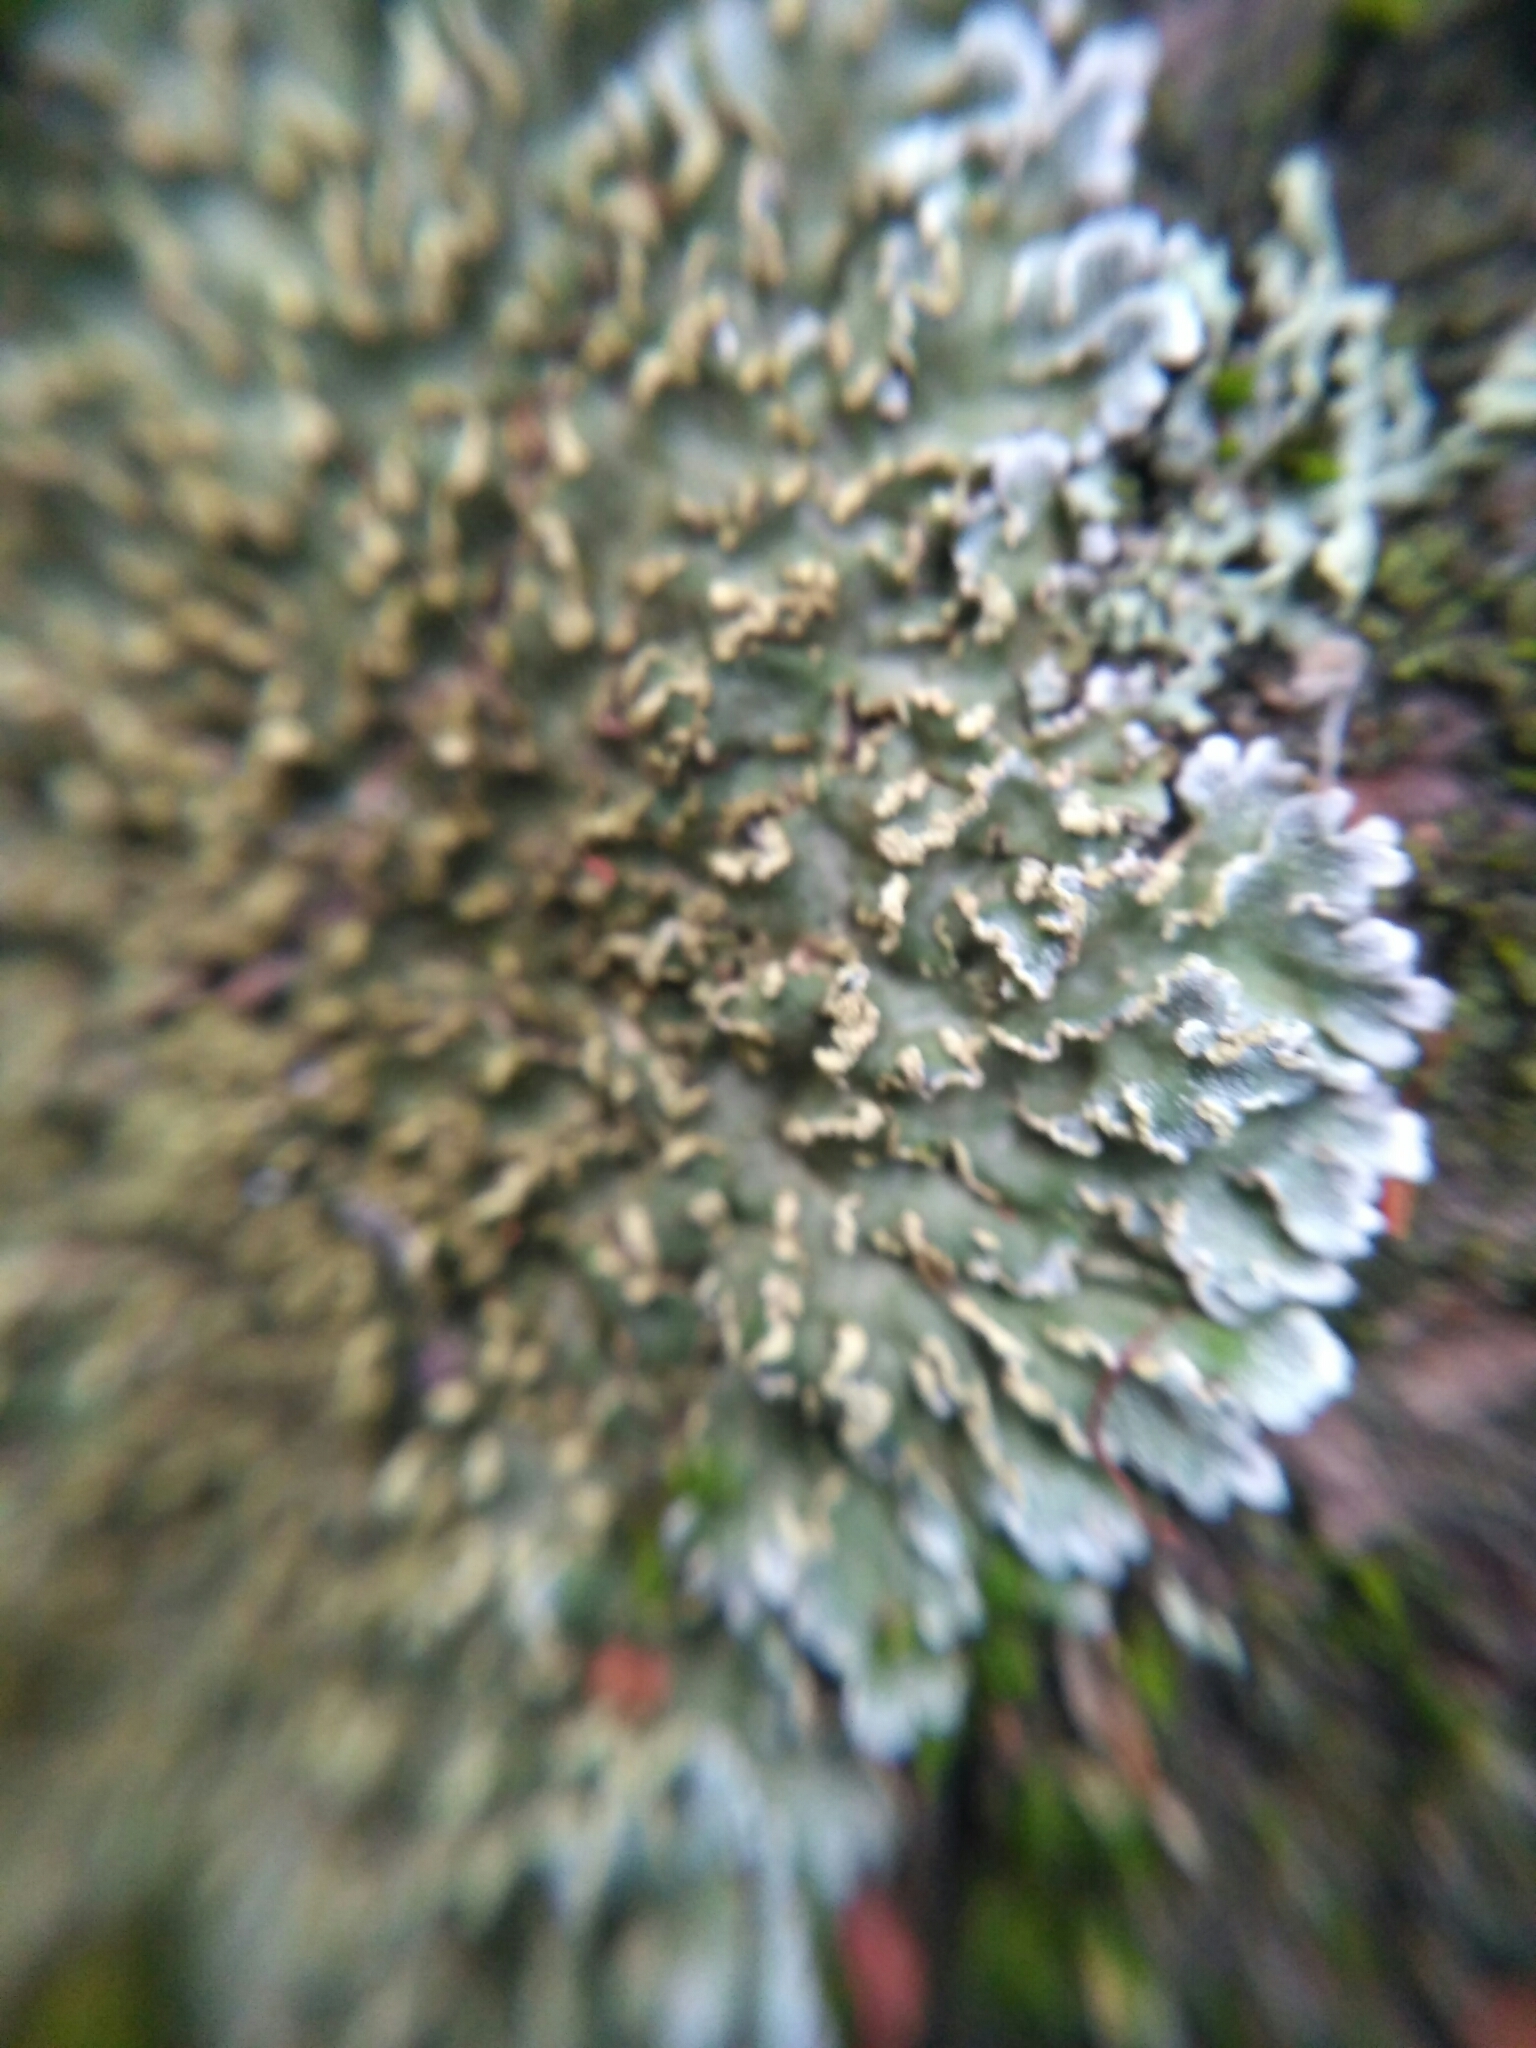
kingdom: Fungi
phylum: Ascomycota
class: Lecanoromycetes
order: Caliciales
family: Physciaceae
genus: Poeltonia
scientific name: Poeltonia grisea
